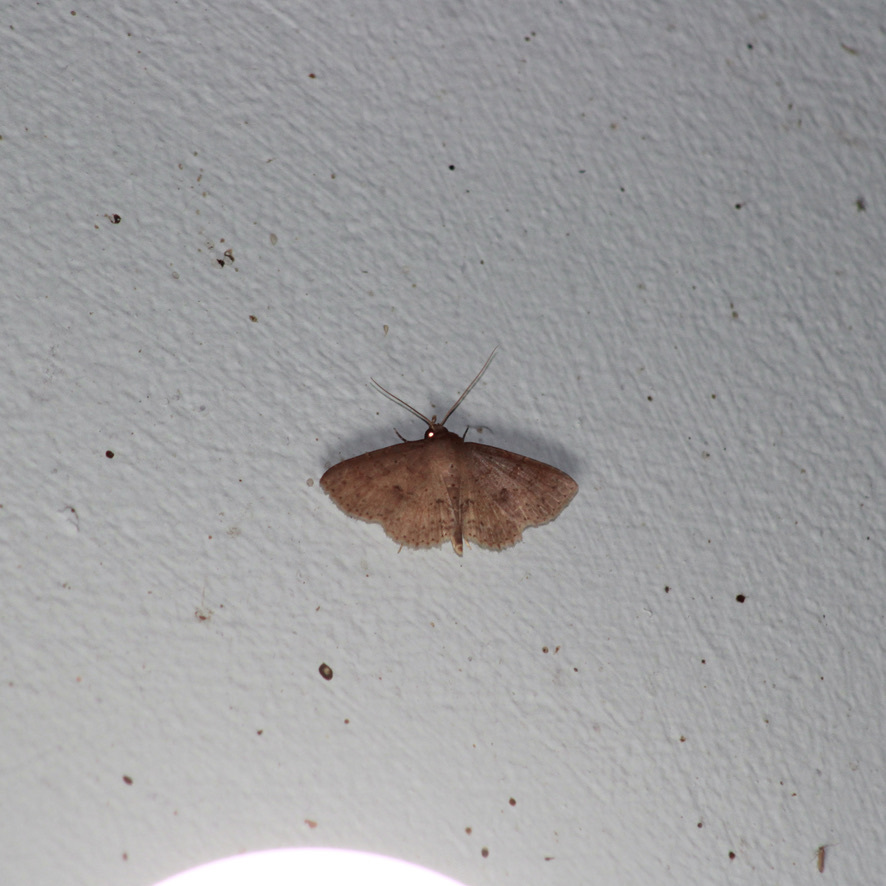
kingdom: Animalia
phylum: Arthropoda
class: Insecta
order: Lepidoptera
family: Erebidae
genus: Antiblemma
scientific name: Antiblemma melanoides
